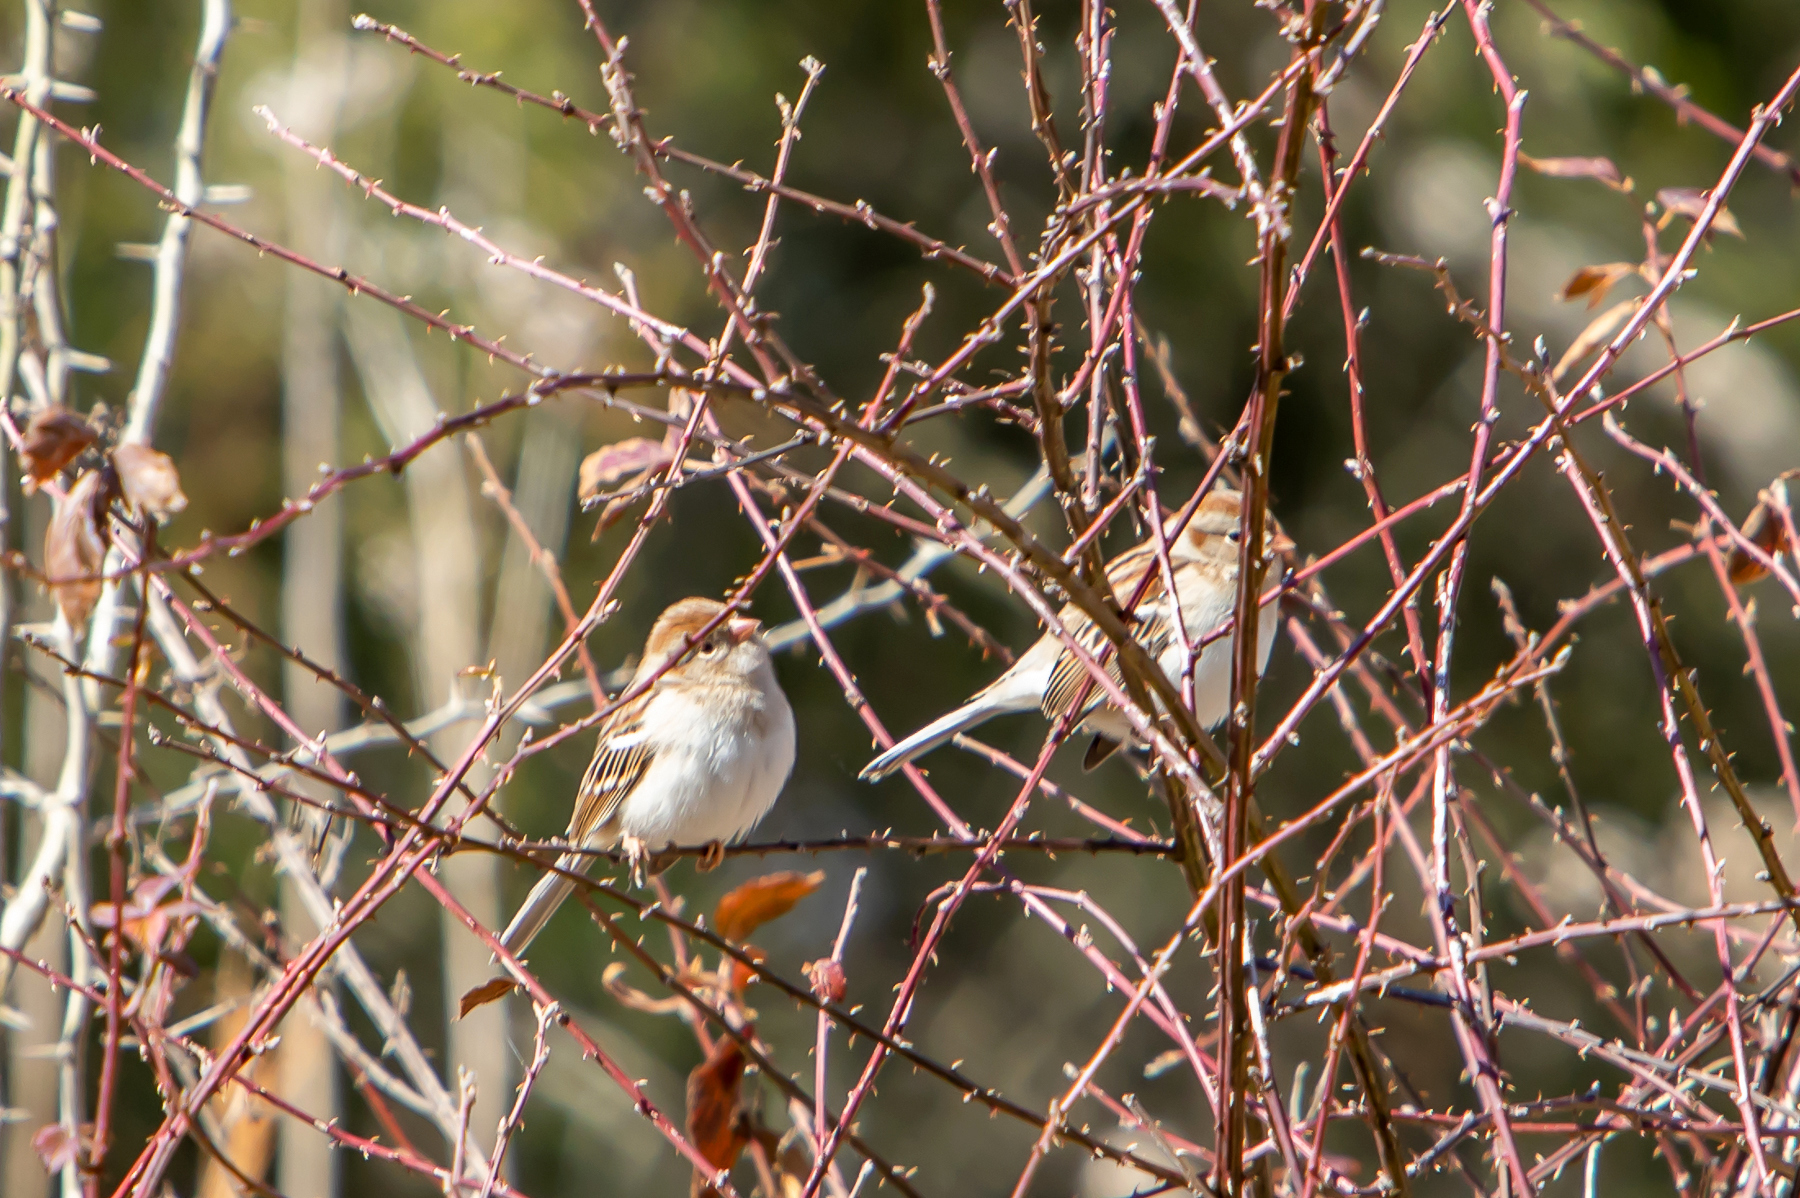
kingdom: Animalia
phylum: Chordata
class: Aves
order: Passeriformes
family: Passerellidae
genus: Spizella
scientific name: Spizella pusilla
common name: Field sparrow
